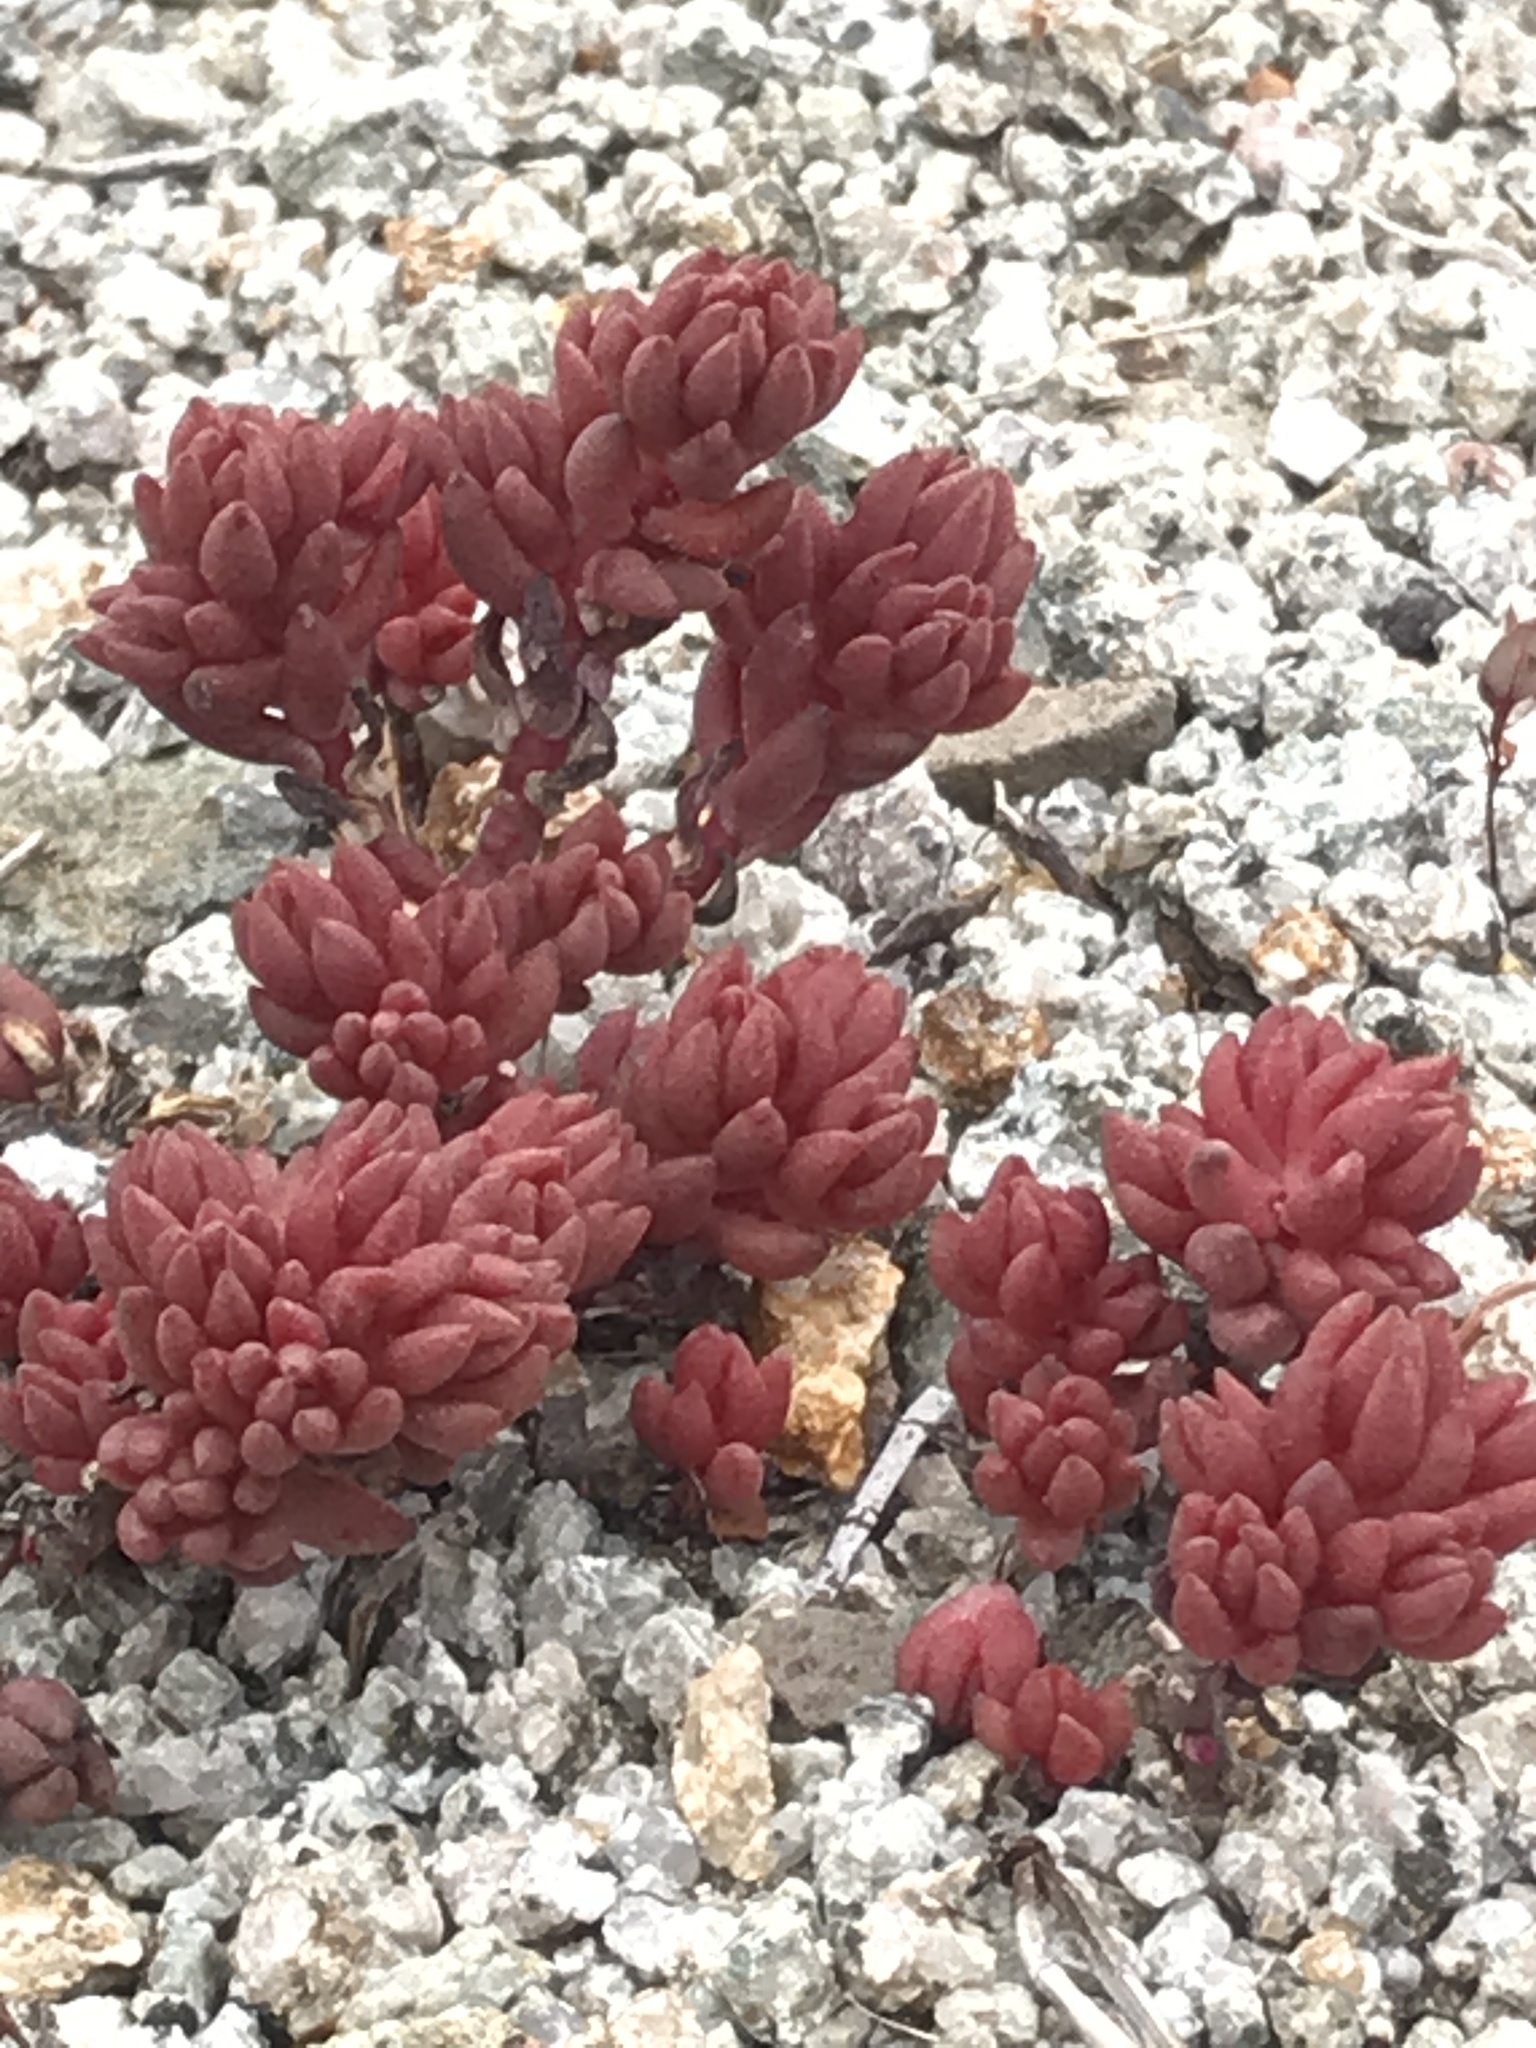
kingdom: Plantae
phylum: Tracheophyta
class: Magnoliopsida
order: Saxifragales
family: Crassulaceae
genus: Sedum
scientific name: Sedum lanceolatum
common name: Common stonecrop
